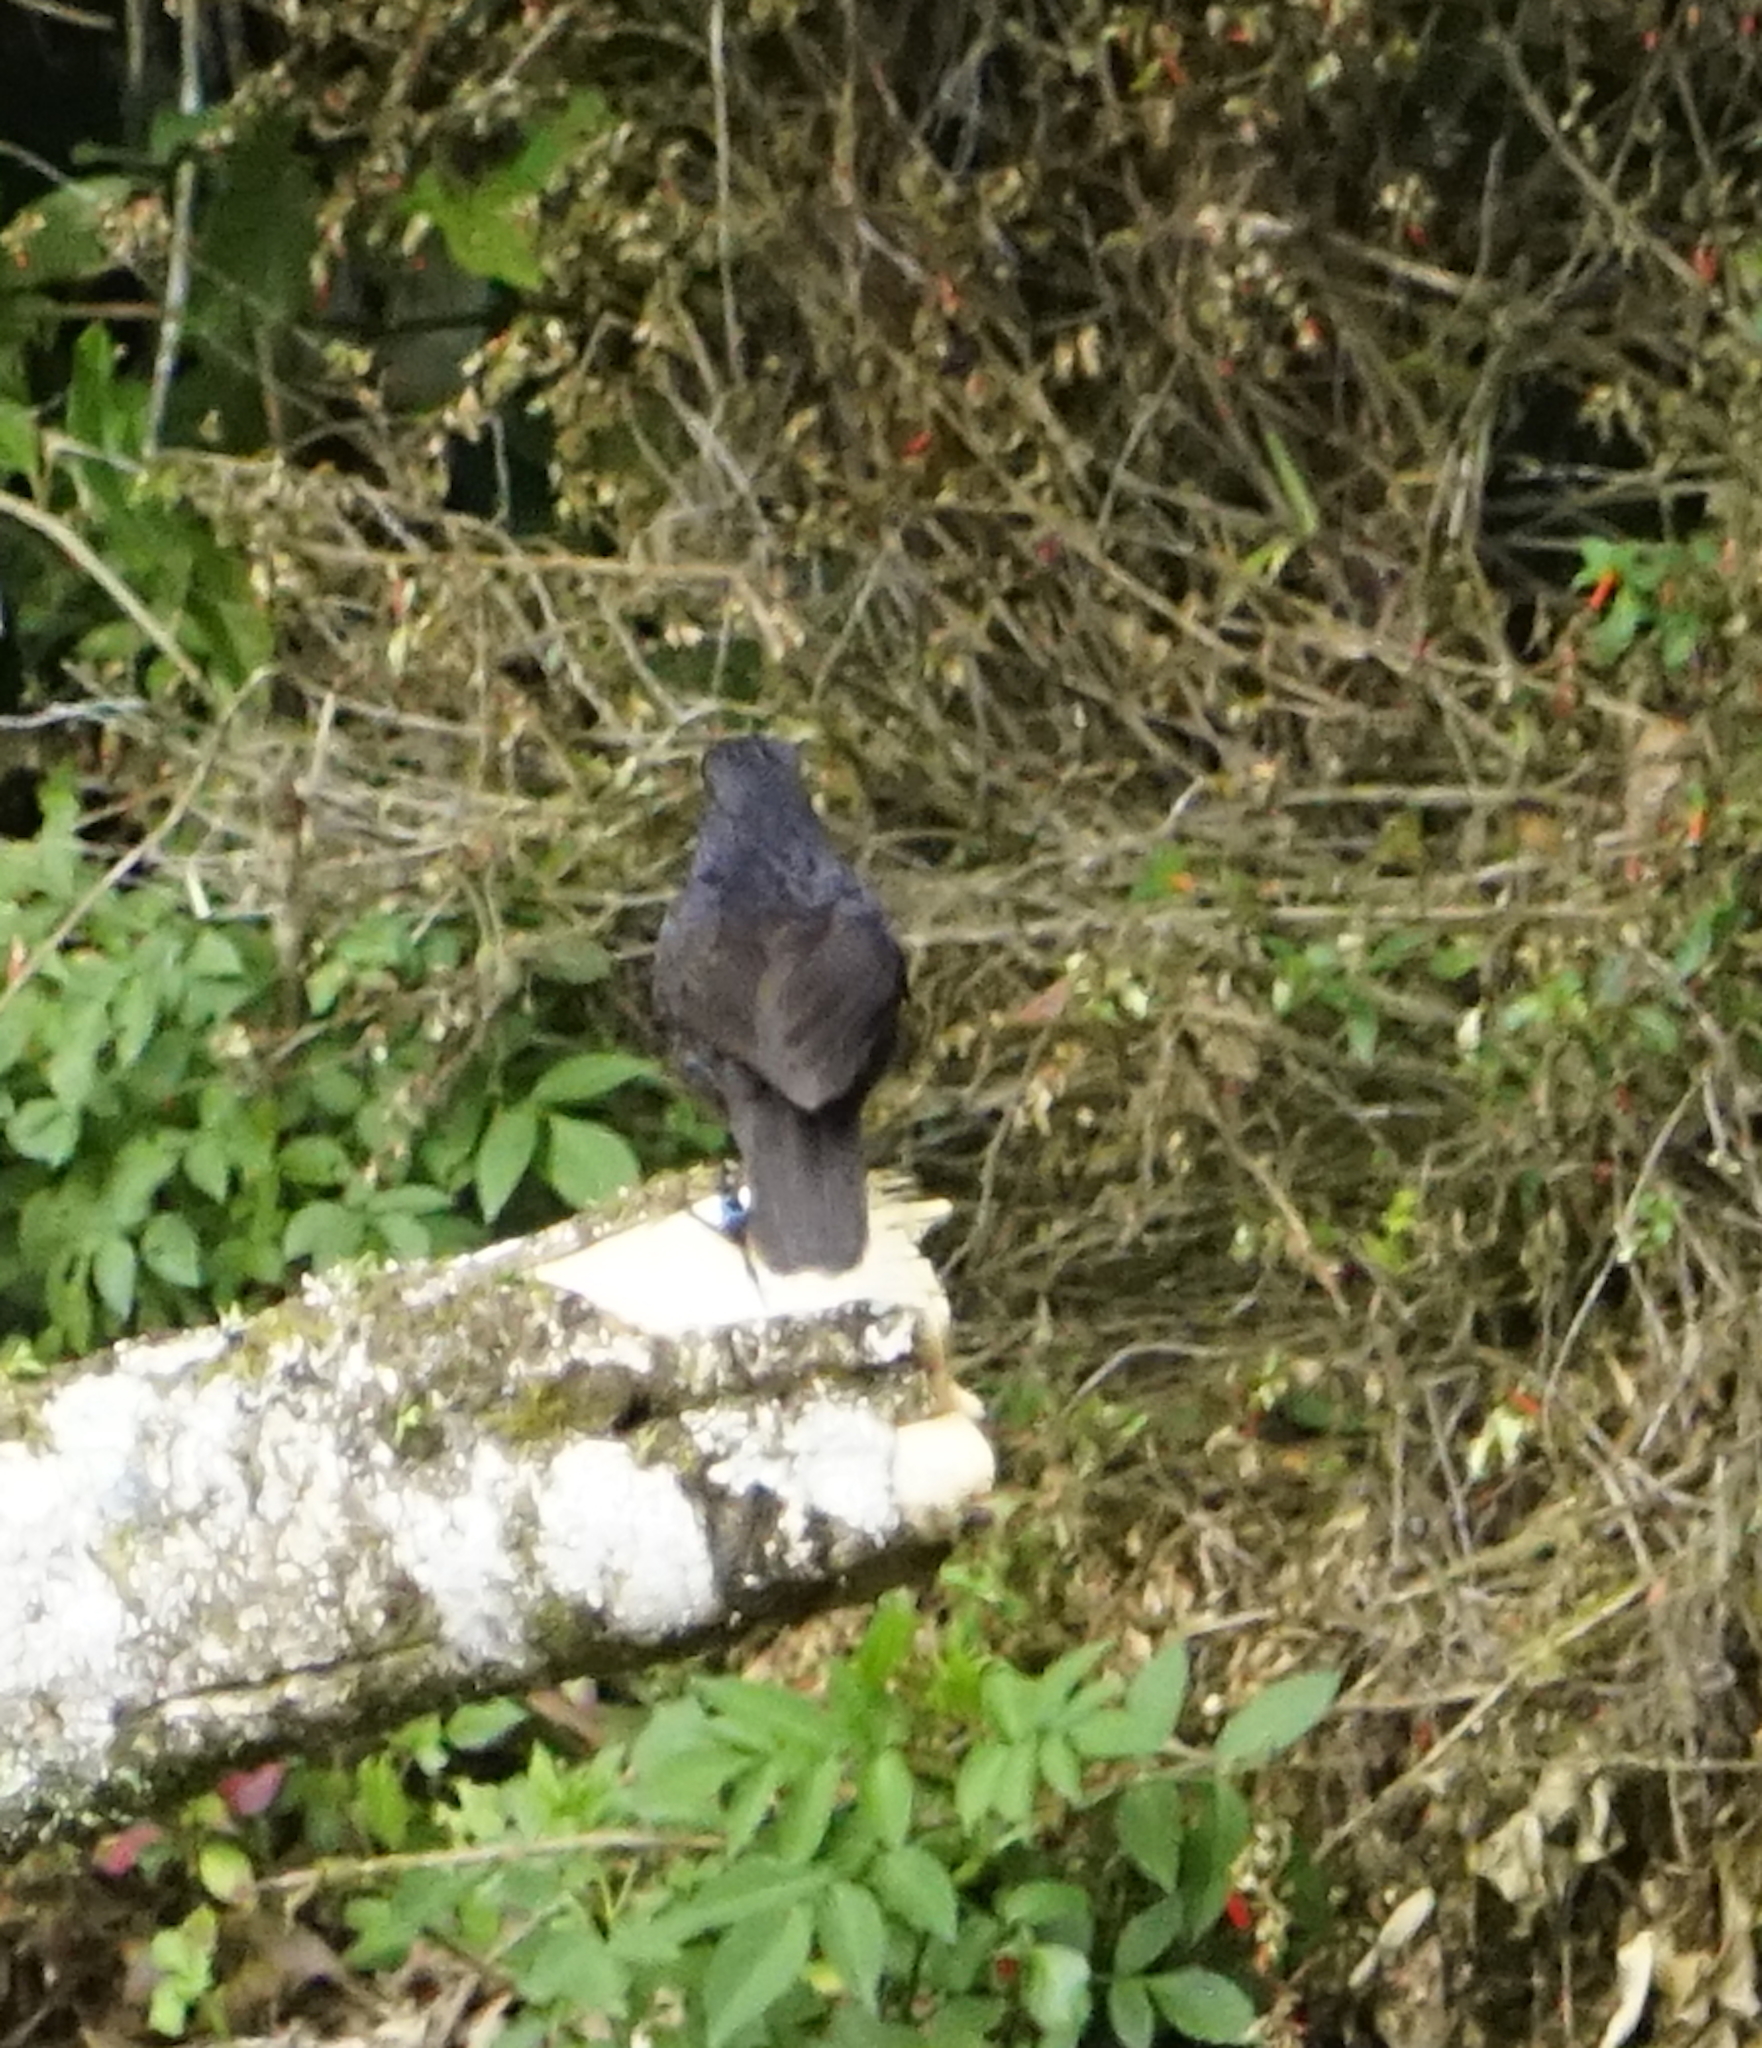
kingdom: Animalia
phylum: Chordata
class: Aves
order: Passeriformes
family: Muscicapidae
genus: Myophonus
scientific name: Myophonus borneensis
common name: Bornean whistling-thrush
